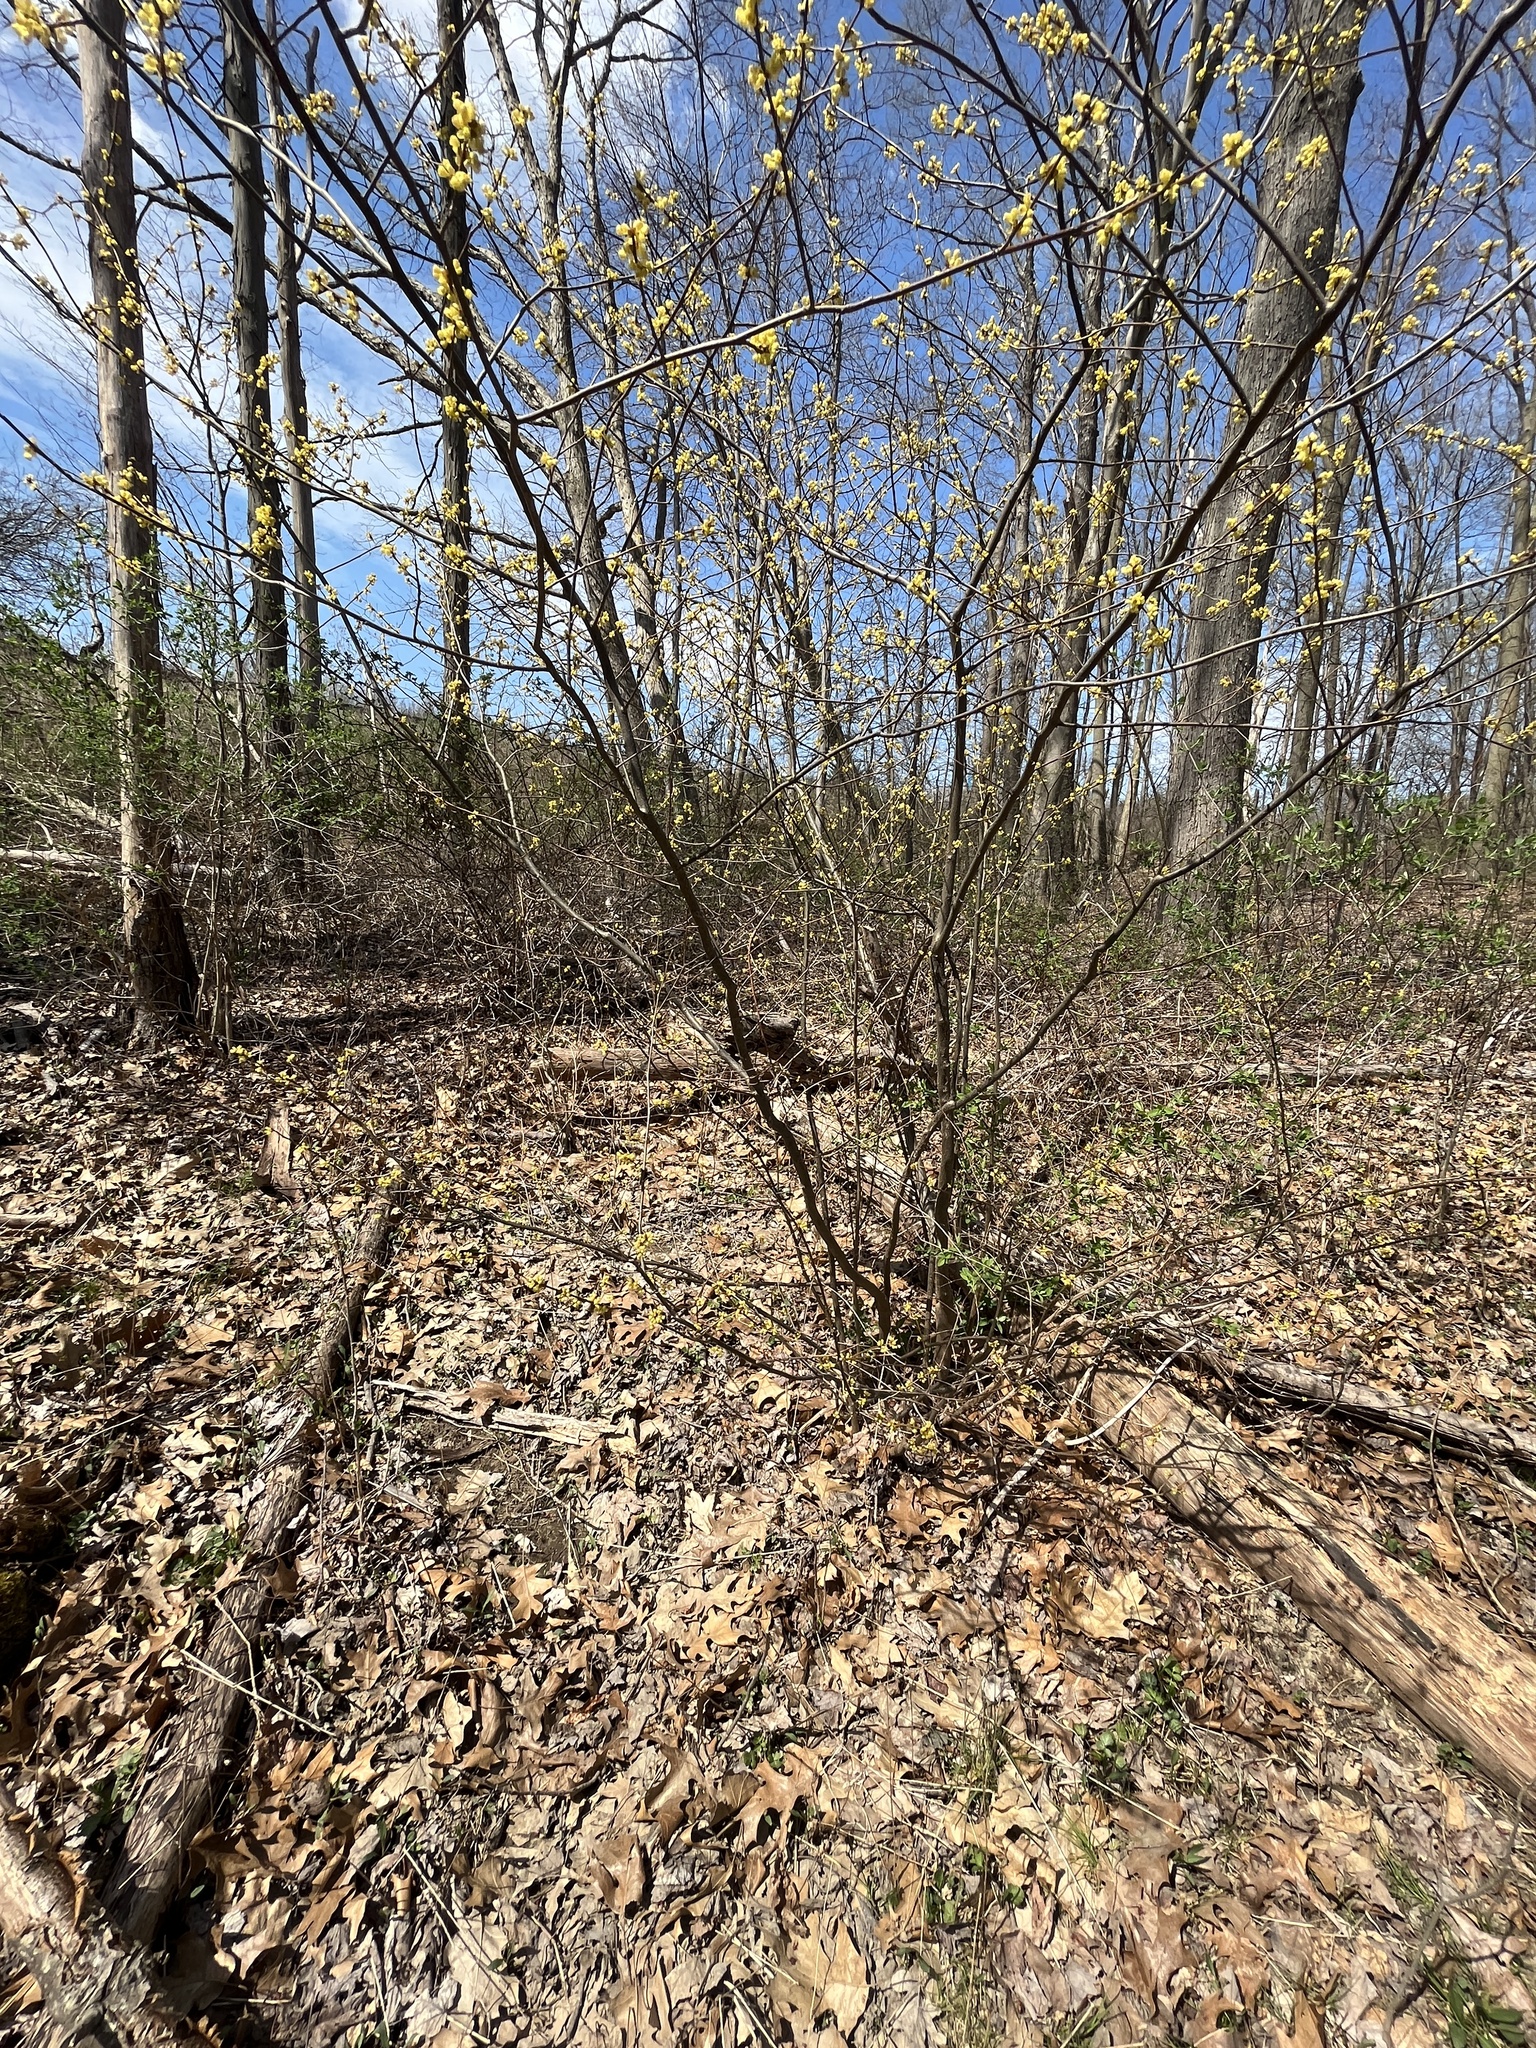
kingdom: Plantae
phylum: Tracheophyta
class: Magnoliopsida
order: Laurales
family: Lauraceae
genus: Lindera
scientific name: Lindera benzoin
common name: Spicebush
